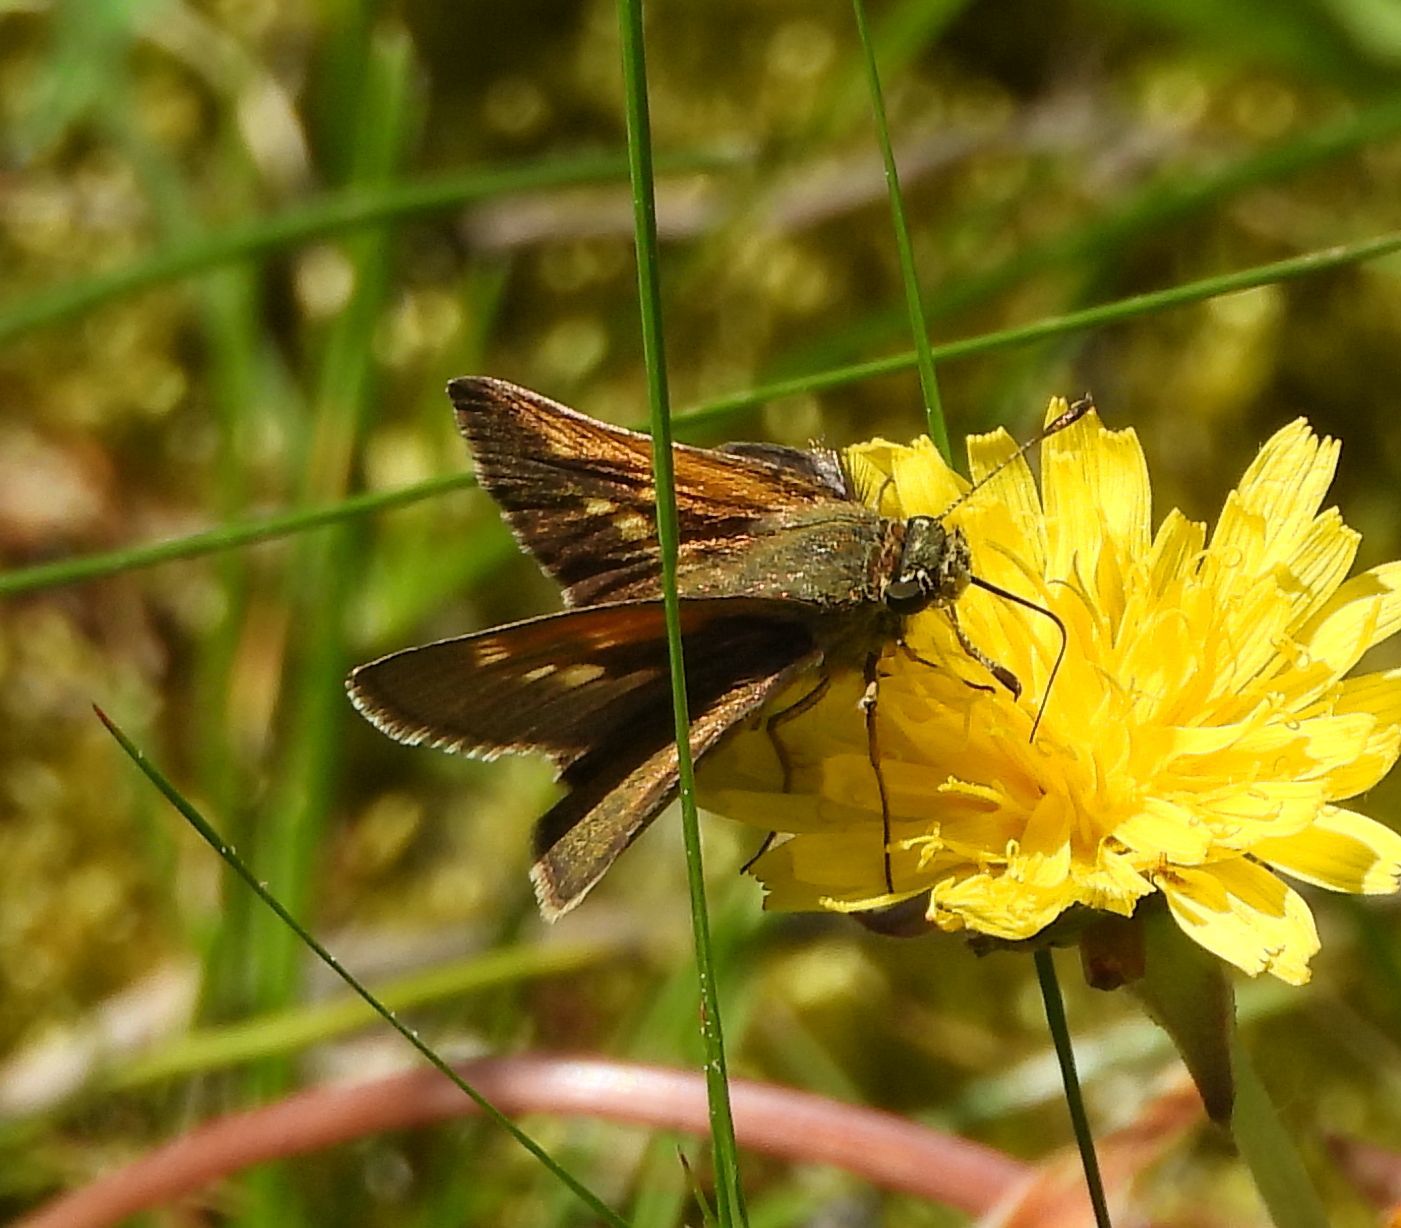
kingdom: Animalia
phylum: Arthropoda
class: Insecta
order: Lepidoptera
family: Hesperiidae
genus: Polites
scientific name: Polites themistocles
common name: Tawny-edged skipper
